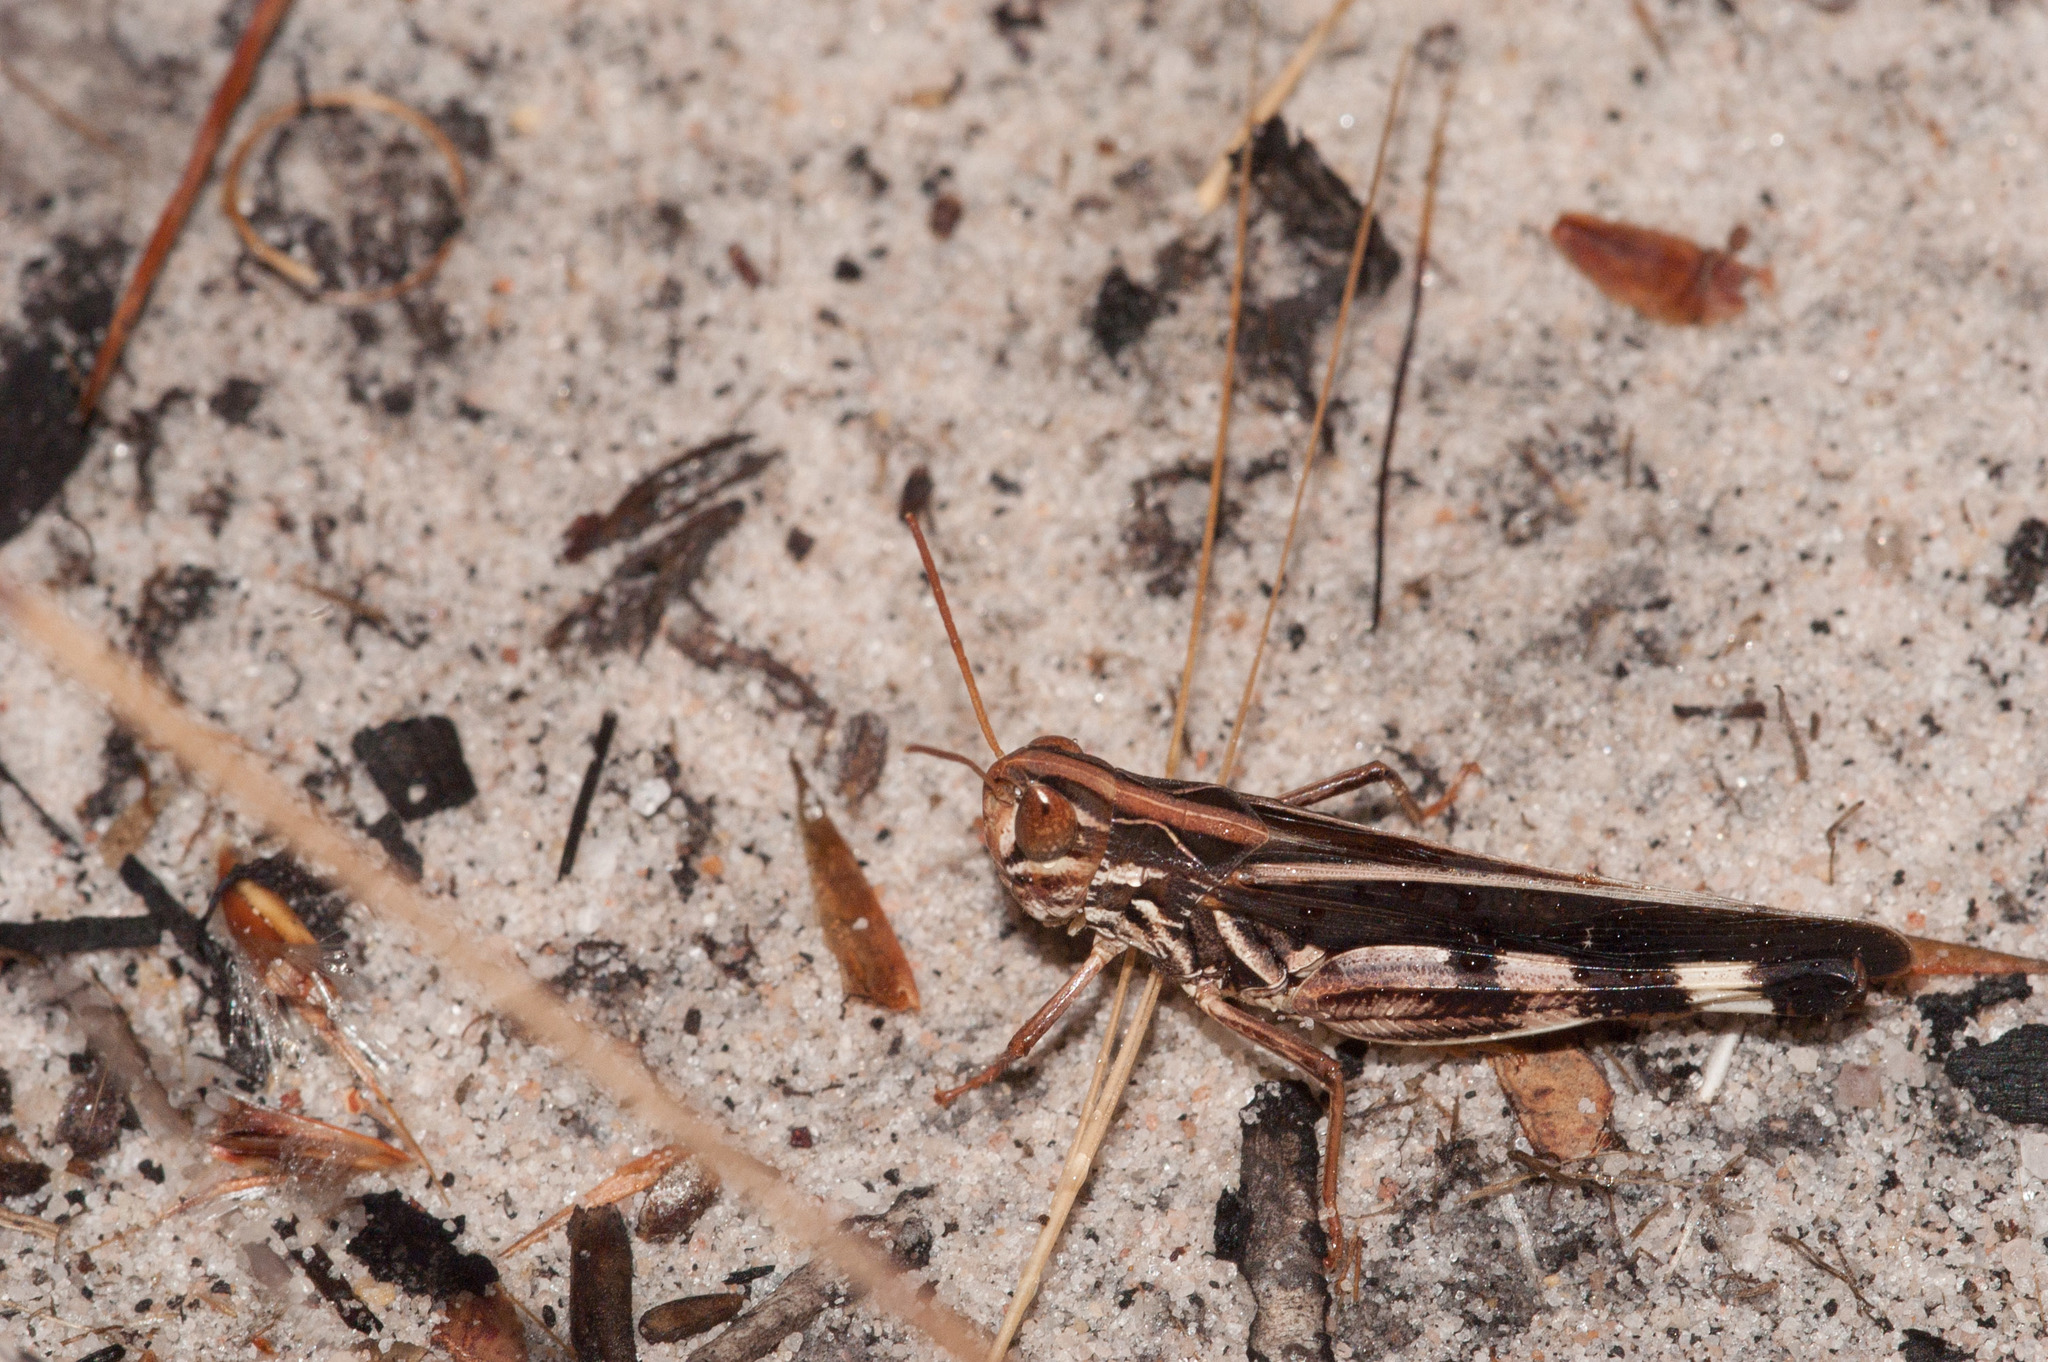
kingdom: Animalia
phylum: Arthropoda
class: Insecta
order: Orthoptera
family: Acrididae
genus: Caledia
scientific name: Caledia captiva
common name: Caledia
